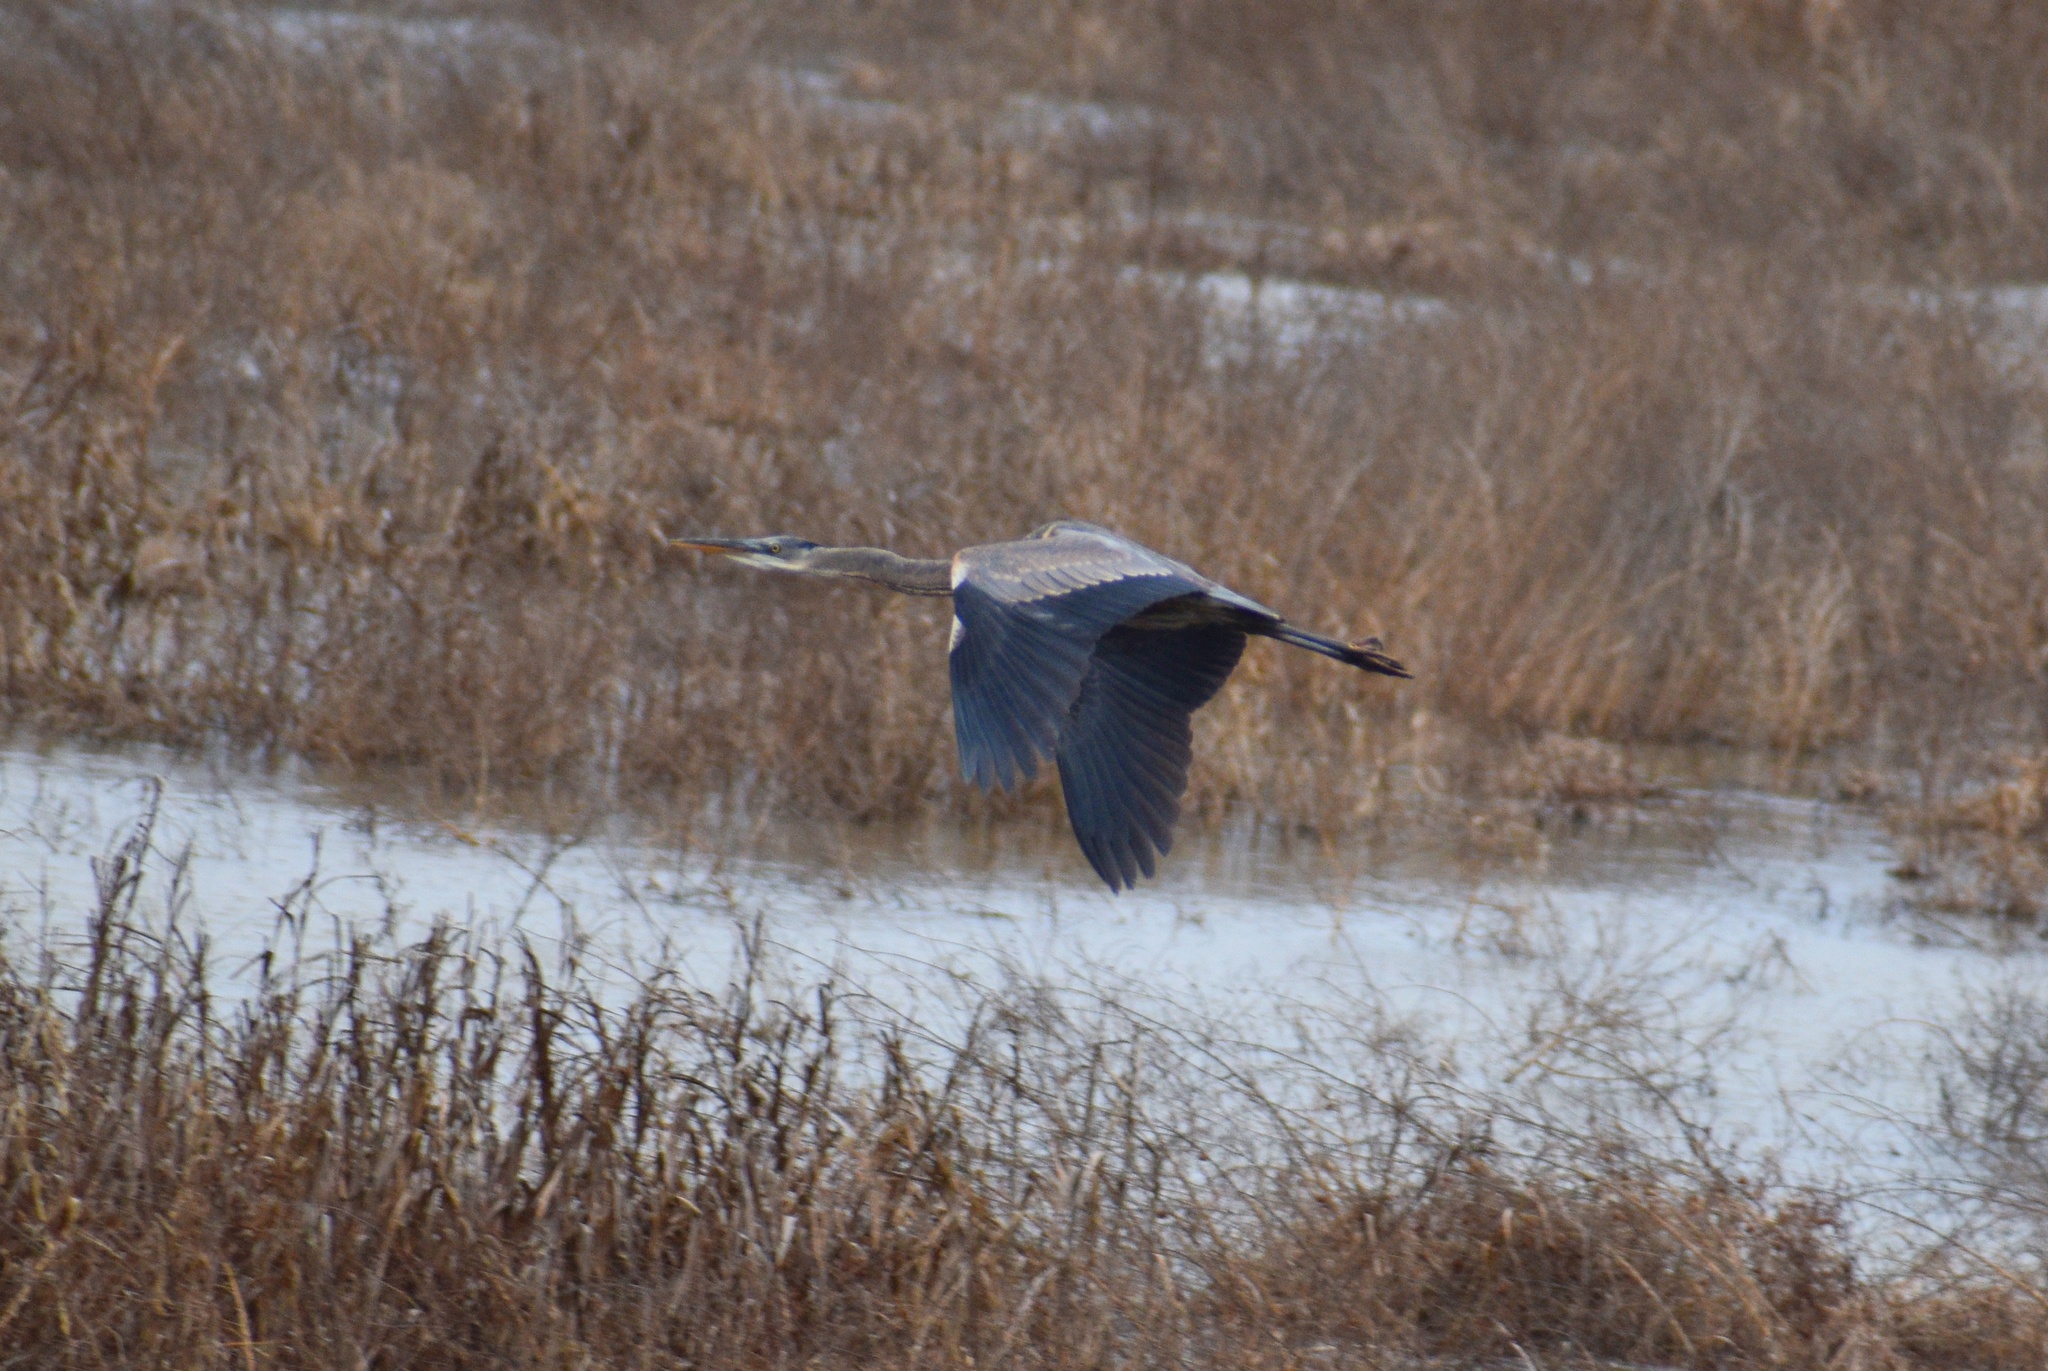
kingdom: Animalia
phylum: Chordata
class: Aves
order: Pelecaniformes
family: Ardeidae
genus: Ardea
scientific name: Ardea herodias
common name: Great blue heron
